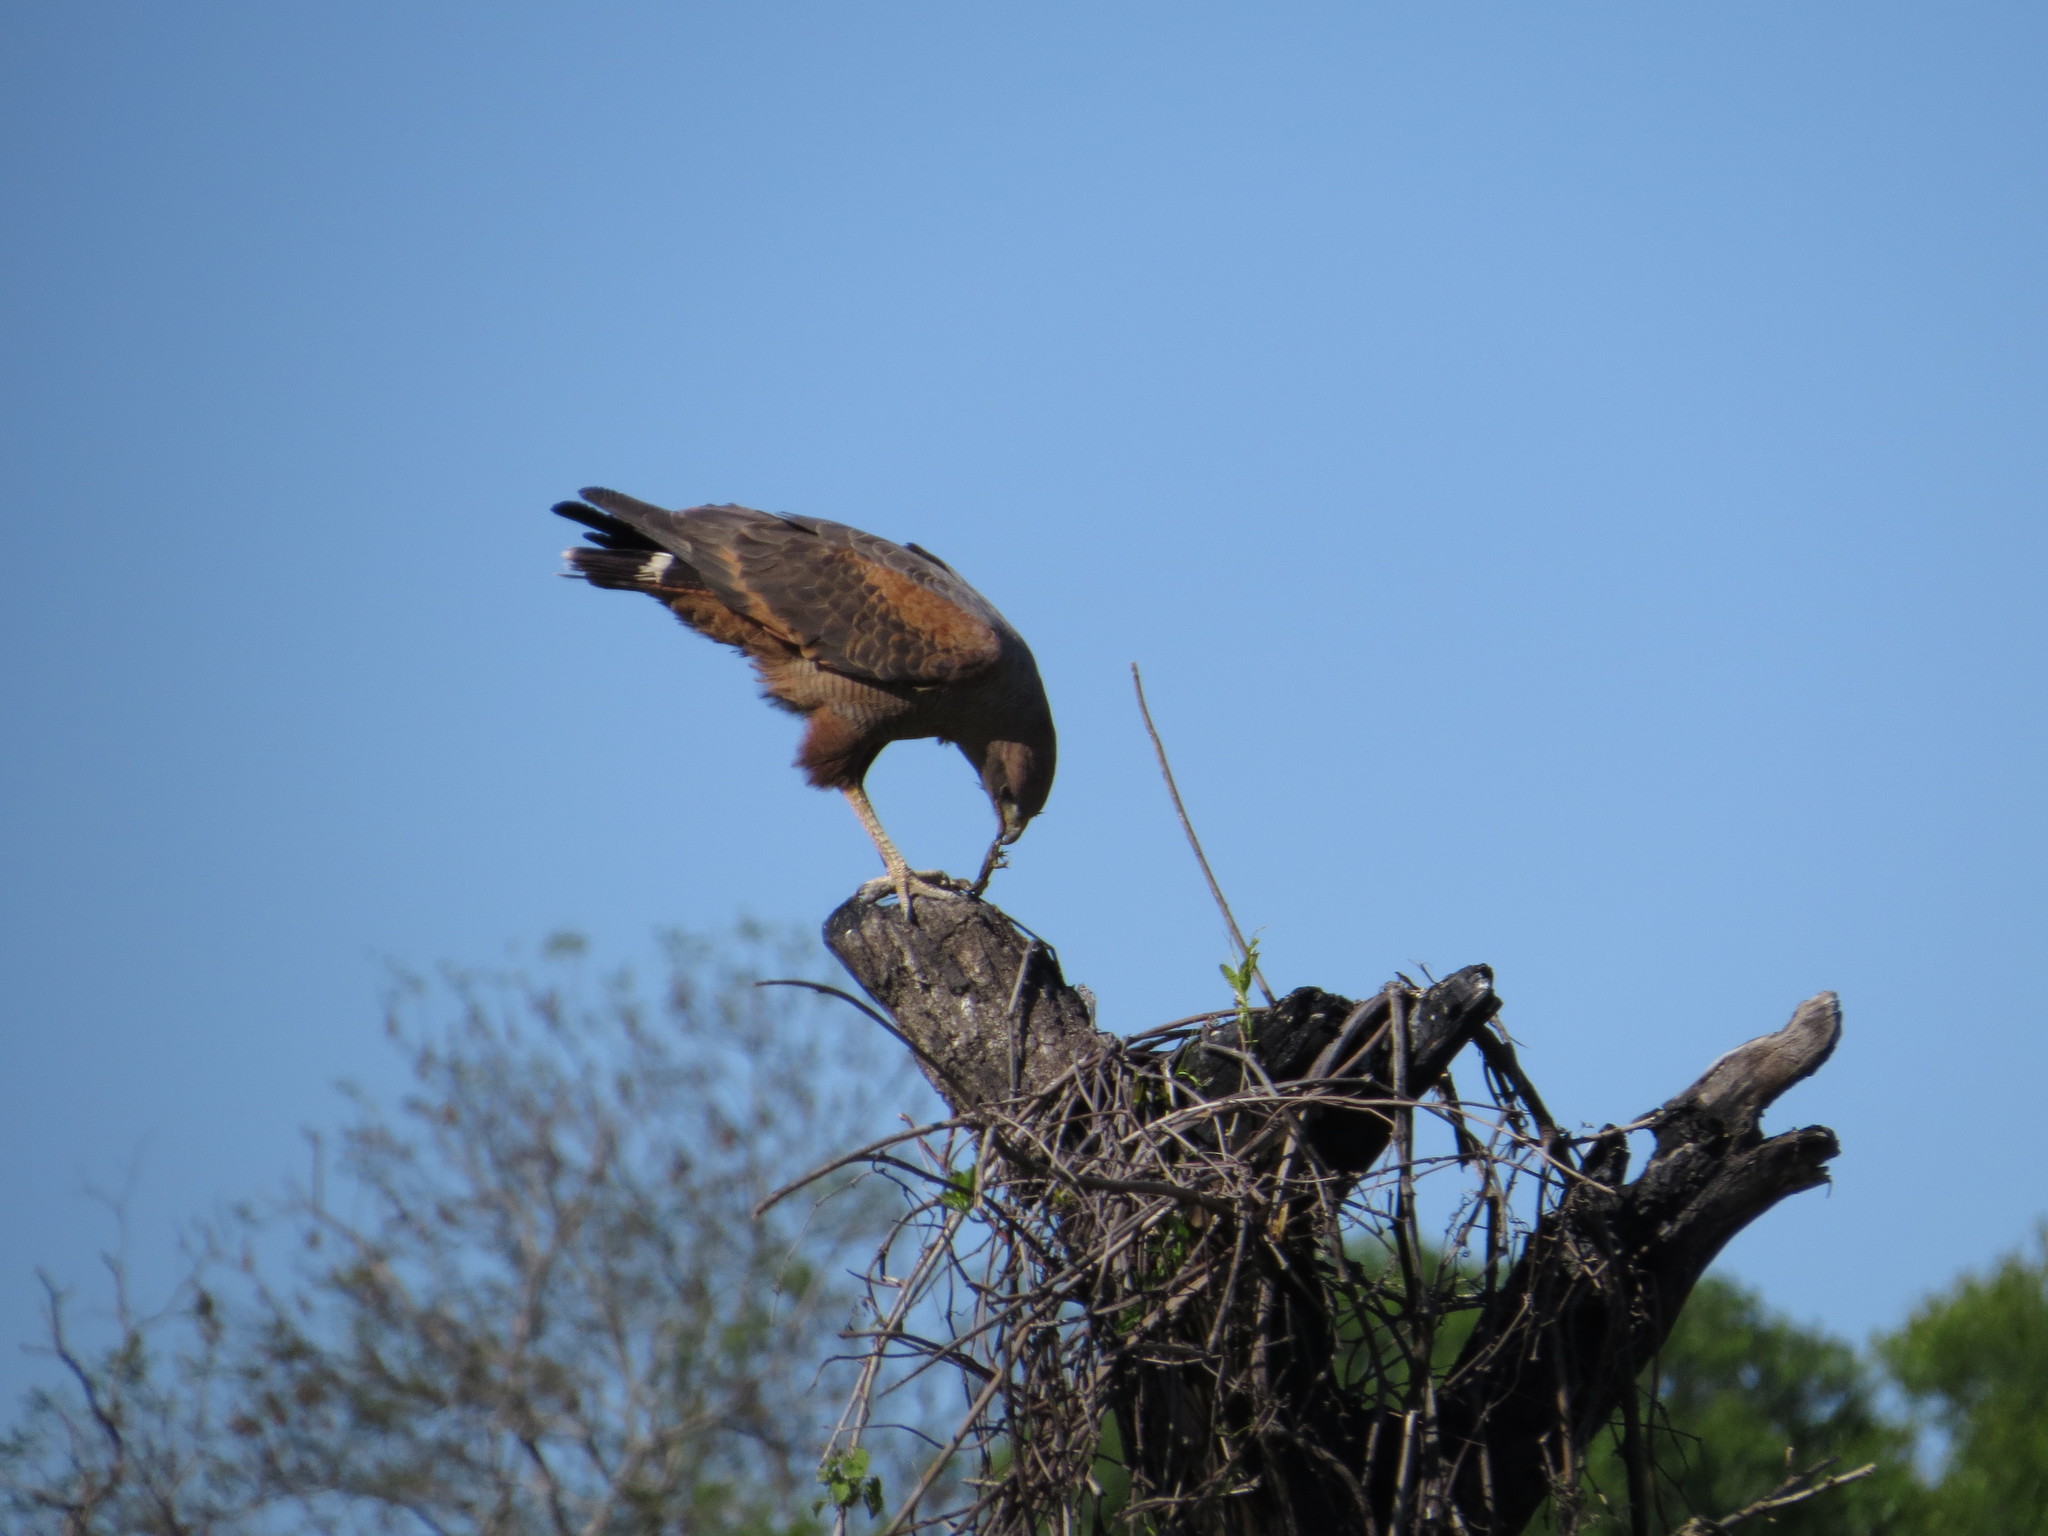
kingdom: Animalia
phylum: Chordata
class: Aves
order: Accipitriformes
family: Accipitridae
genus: Buteogallus
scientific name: Buteogallus meridionalis
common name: Savanna hawk
